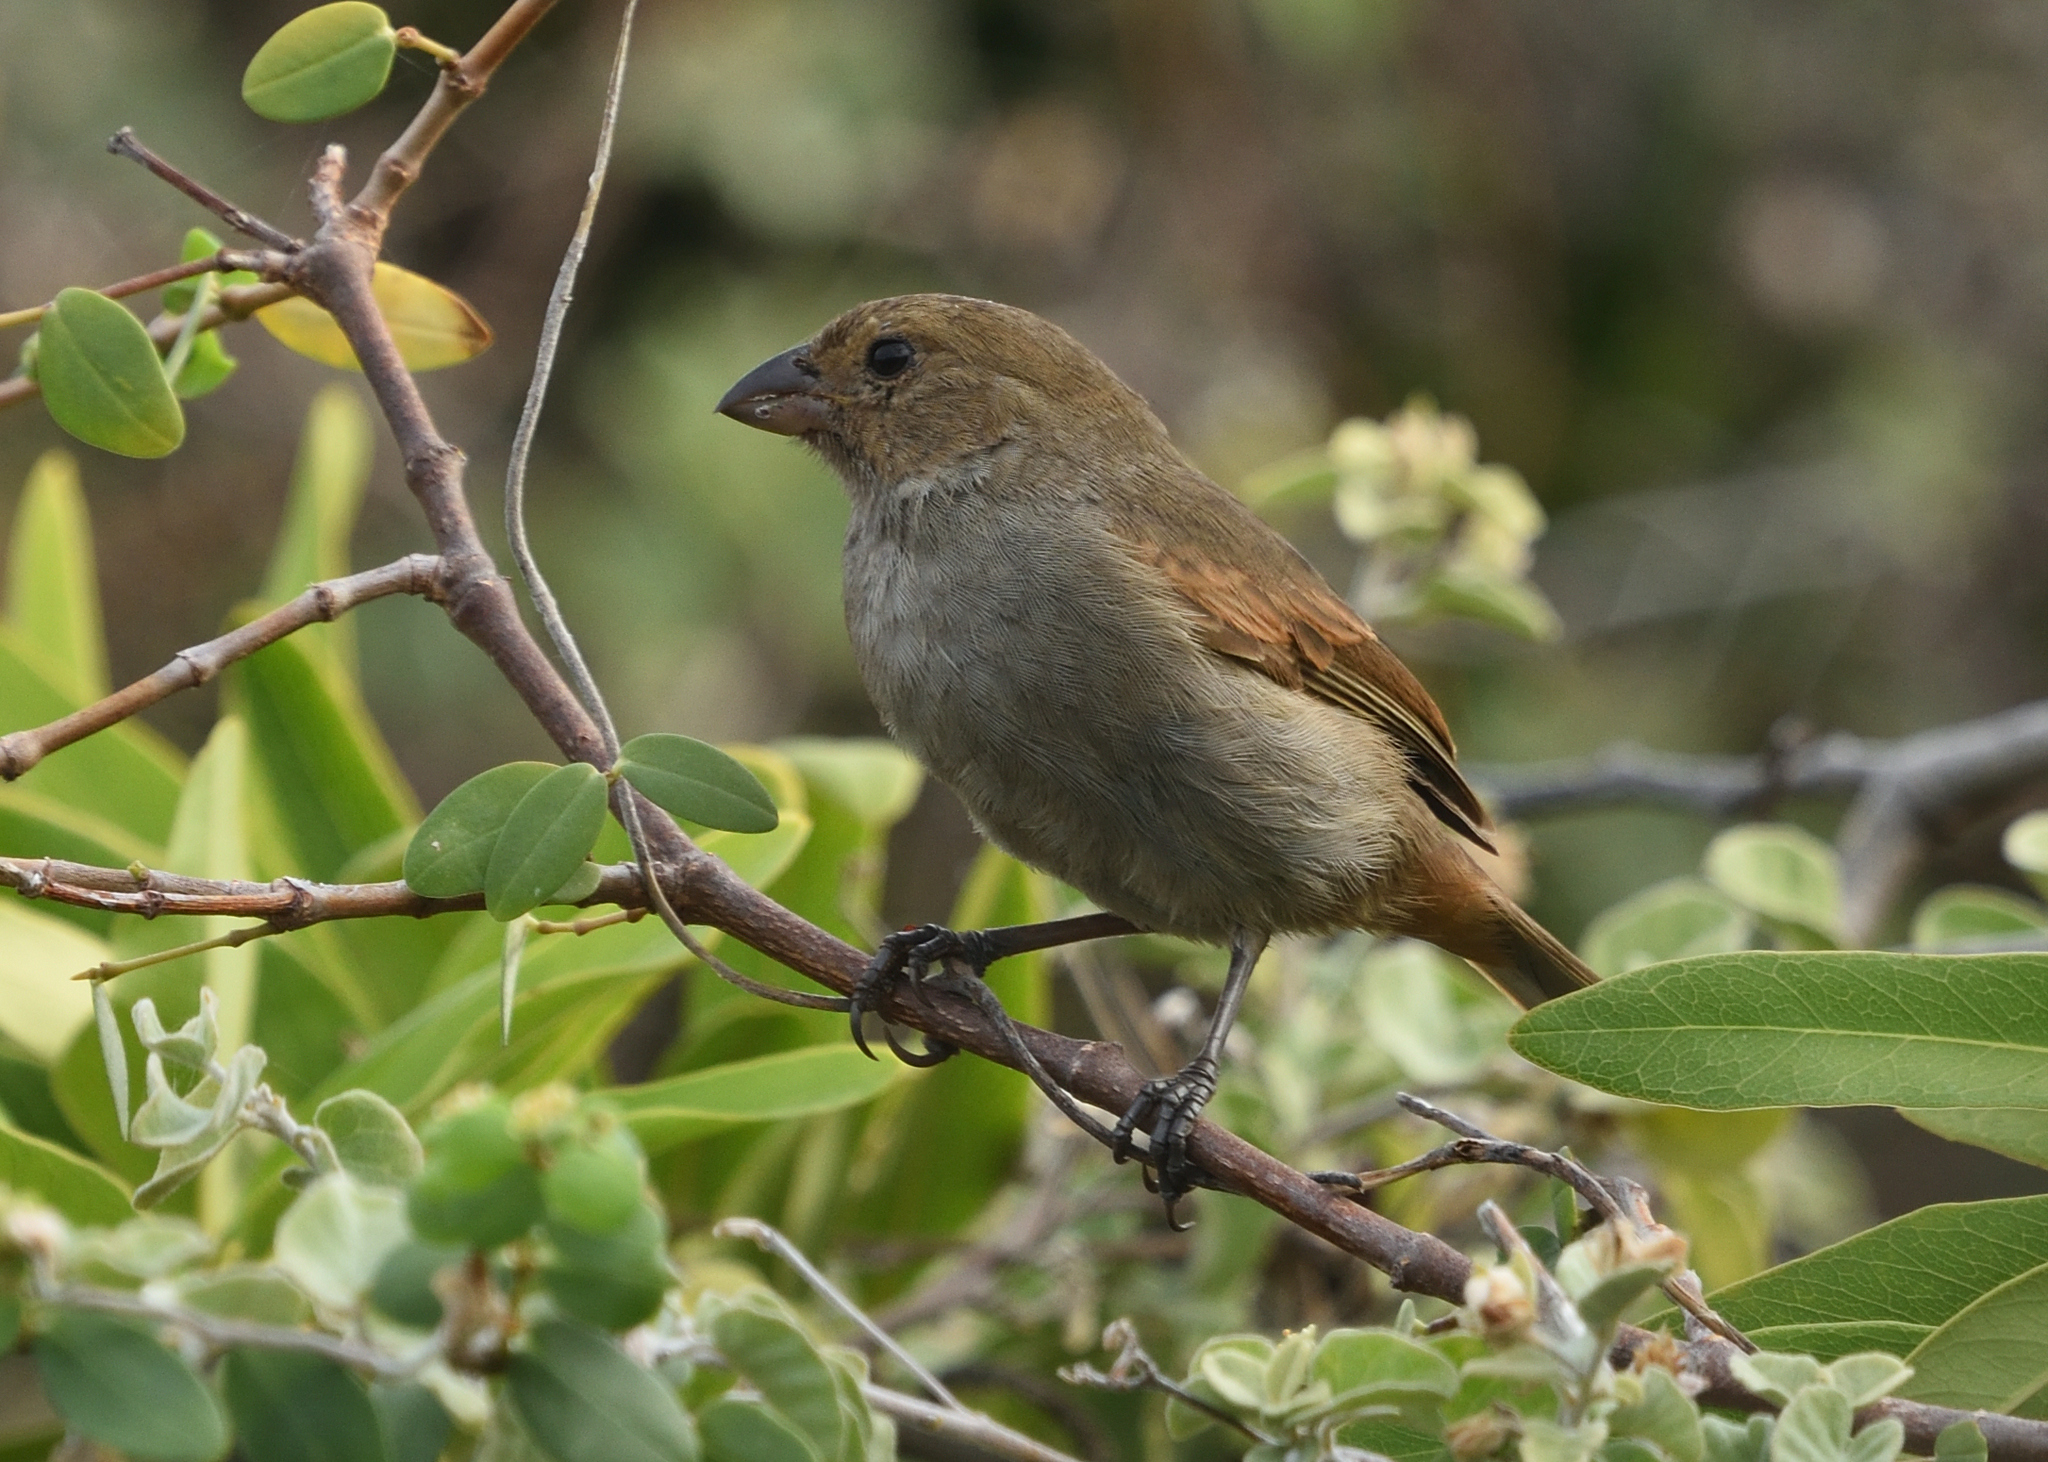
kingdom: Animalia
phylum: Chordata
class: Aves
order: Passeriformes
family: Thraupidae
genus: Loxigilla
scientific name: Loxigilla noctis
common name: Lesser antillean bullfinch
